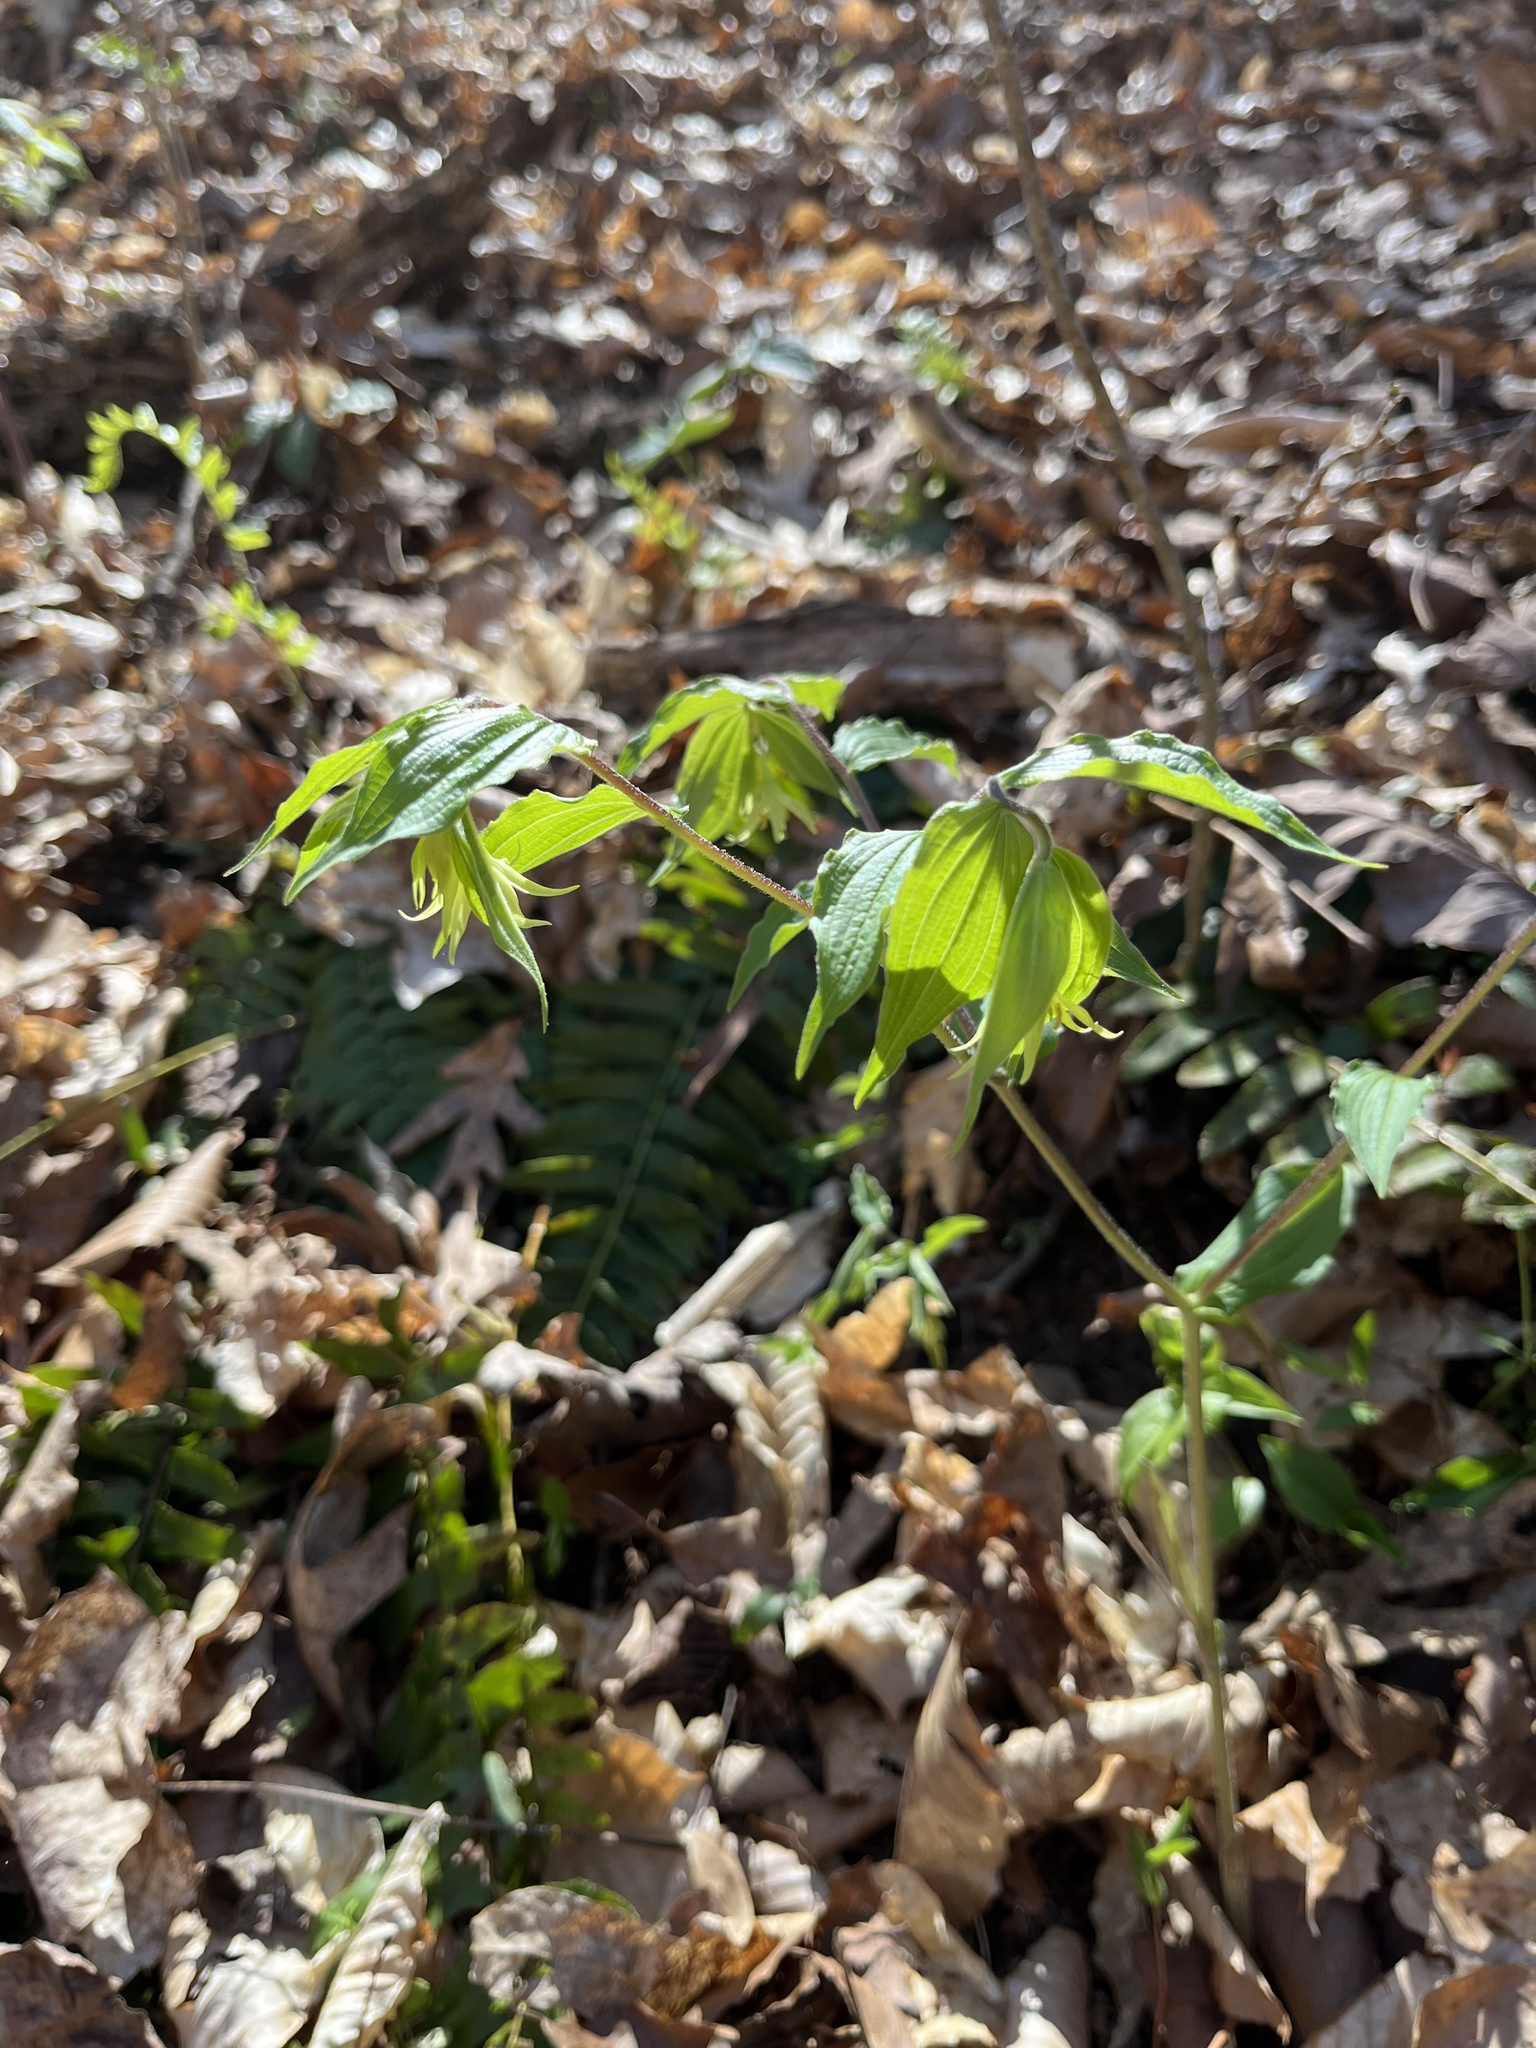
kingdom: Plantae
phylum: Tracheophyta
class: Liliopsida
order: Liliales
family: Liliaceae
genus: Prosartes
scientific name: Prosartes lanuginosa
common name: Hairy mandarin
